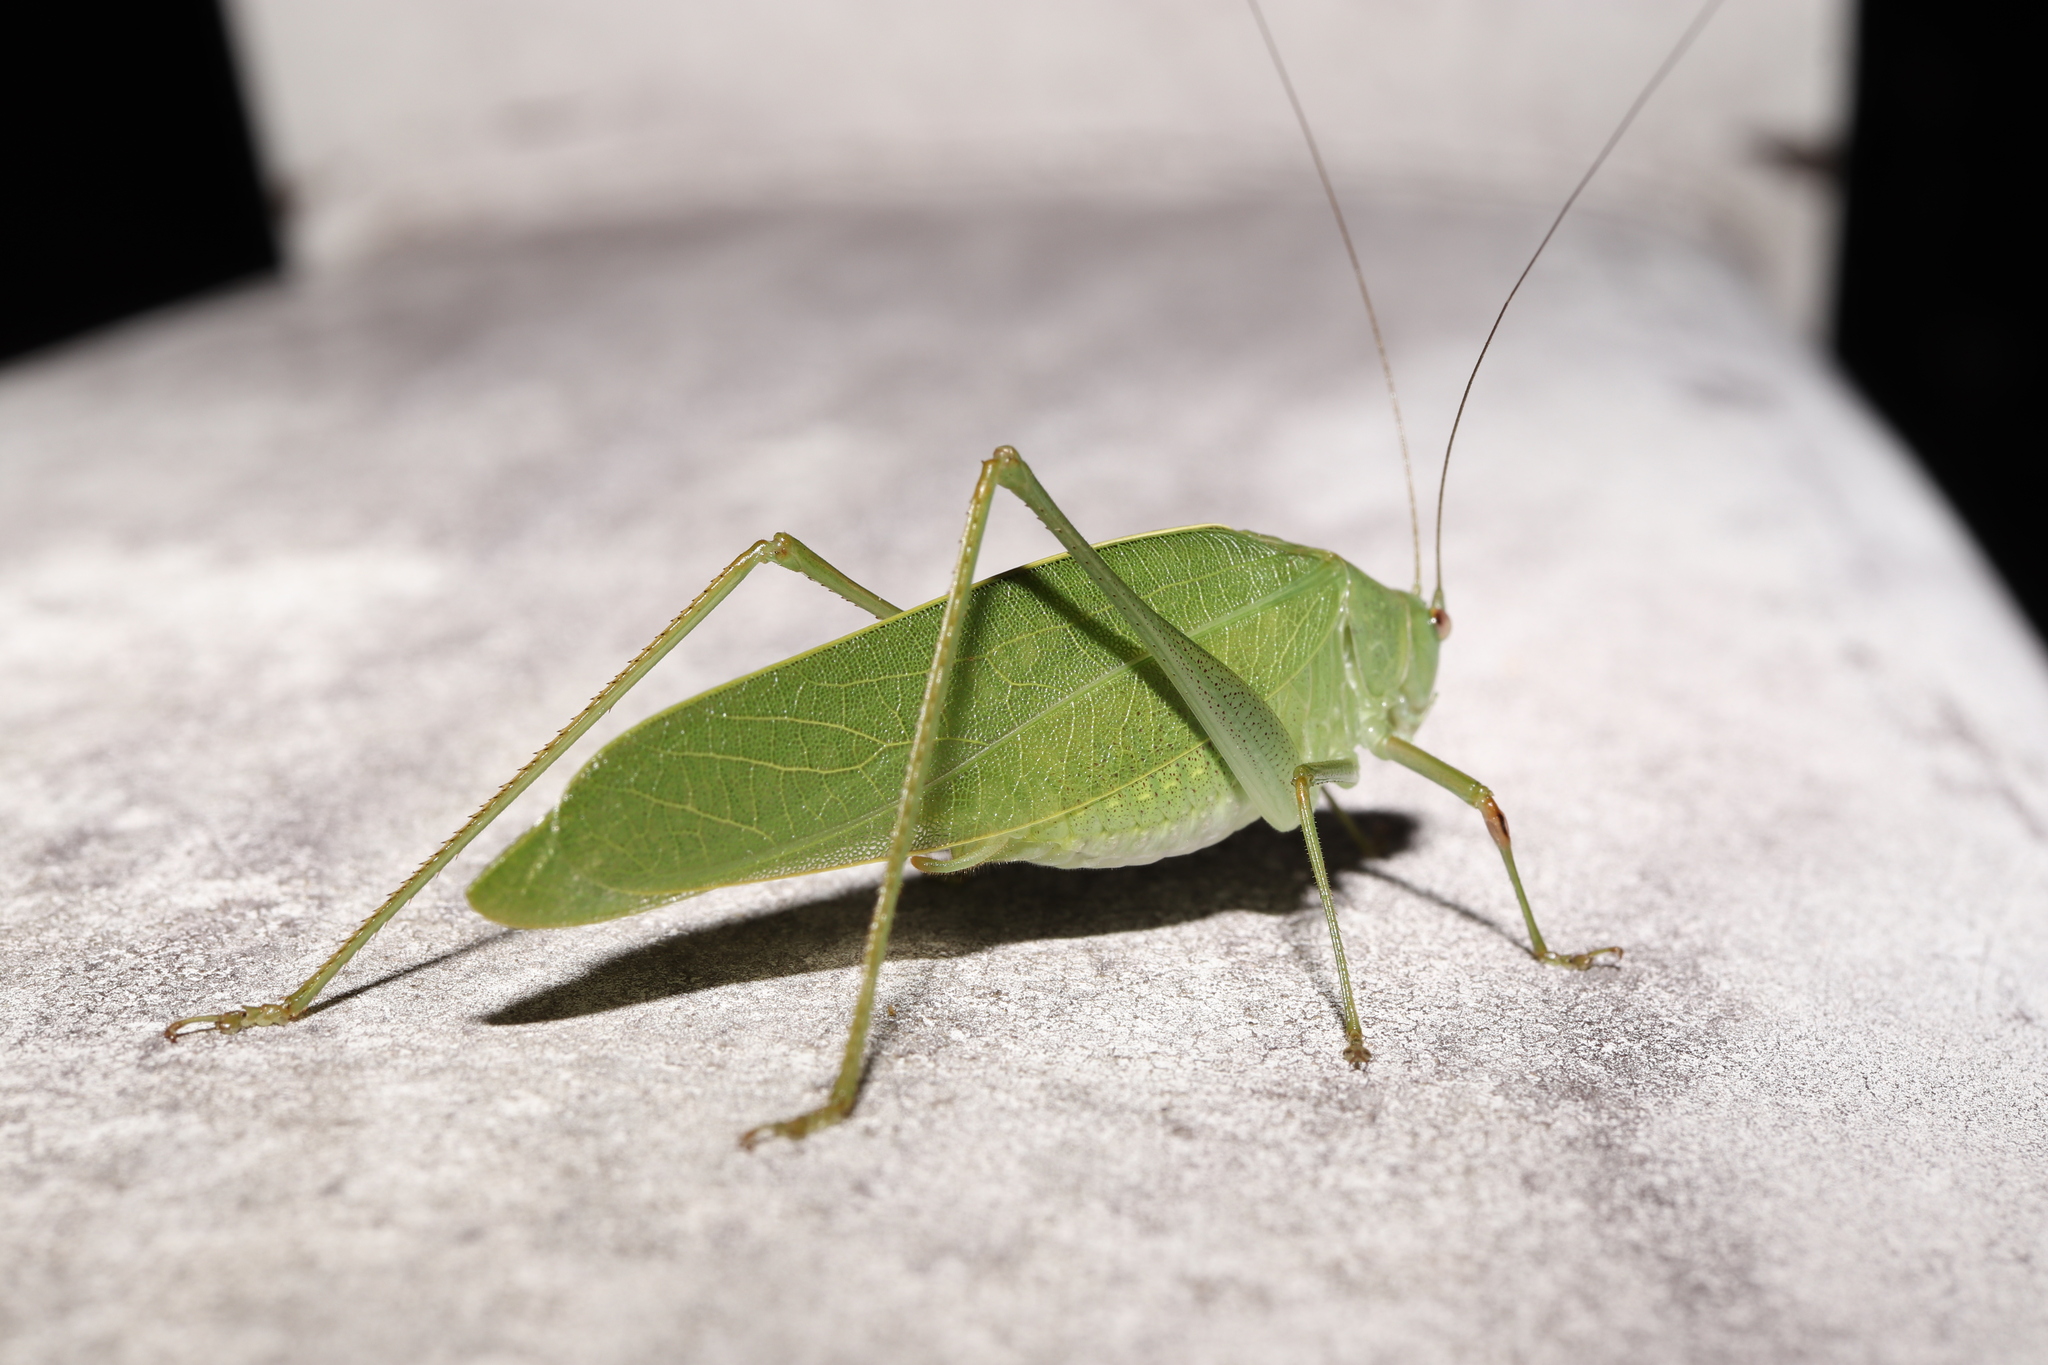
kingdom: Animalia
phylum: Arthropoda
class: Insecta
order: Orthoptera
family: Tettigoniidae
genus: Phaulula
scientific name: Phaulula macilenta
